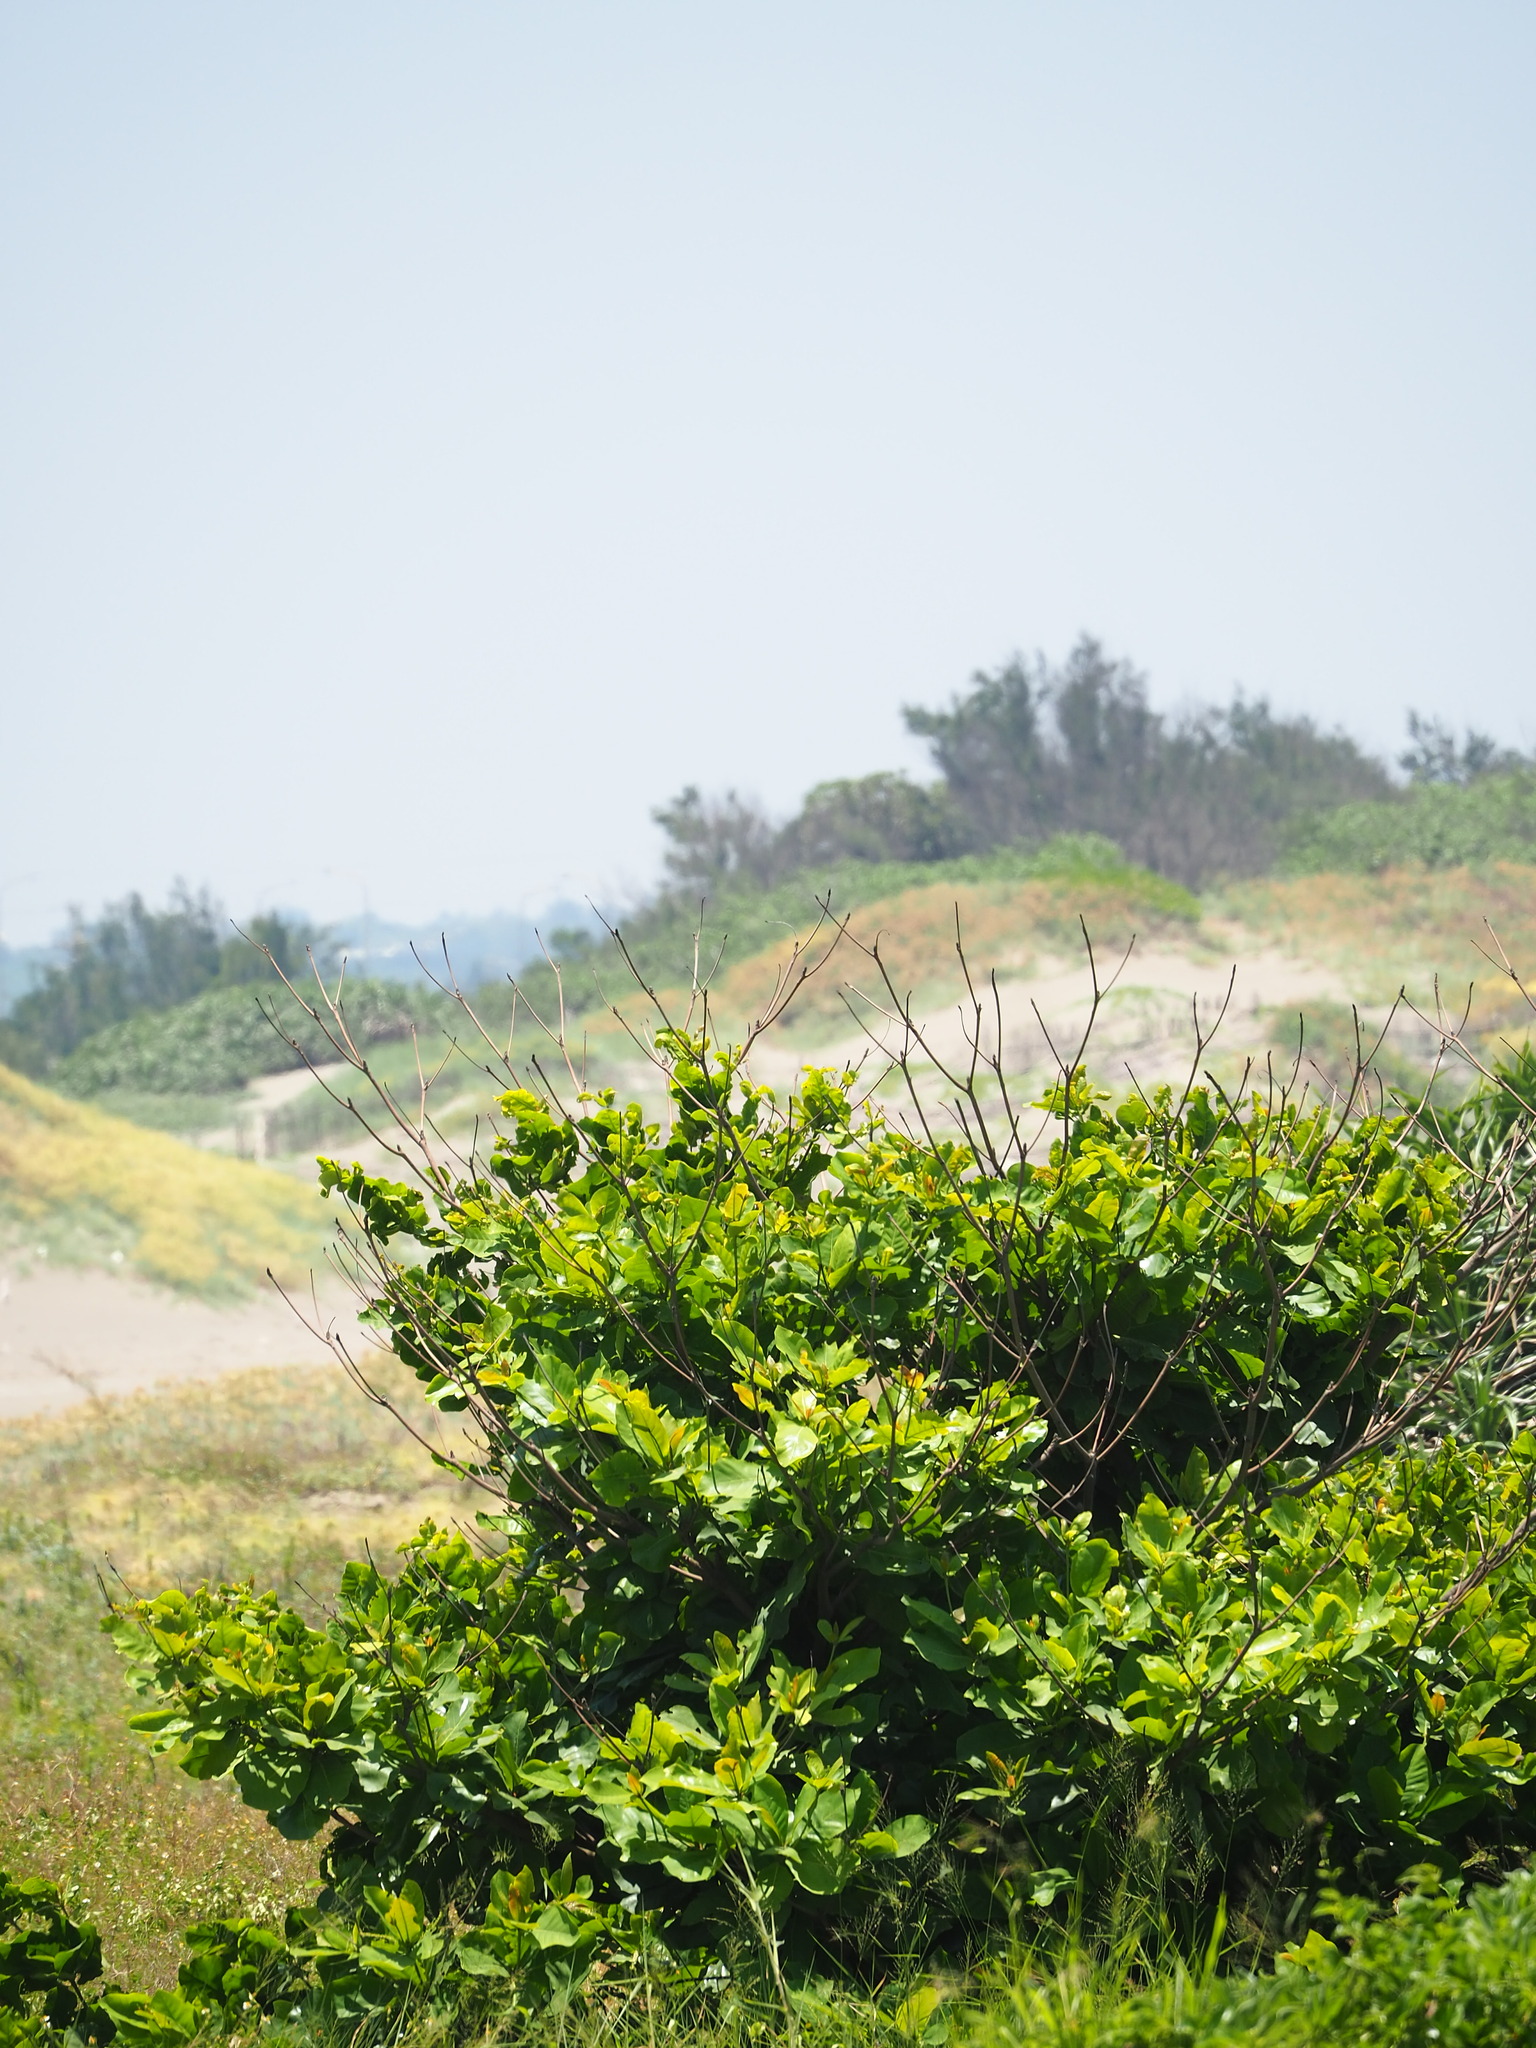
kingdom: Plantae
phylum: Tracheophyta
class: Magnoliopsida
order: Myrtales
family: Combretaceae
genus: Terminalia
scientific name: Terminalia catappa
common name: Tropical almond
